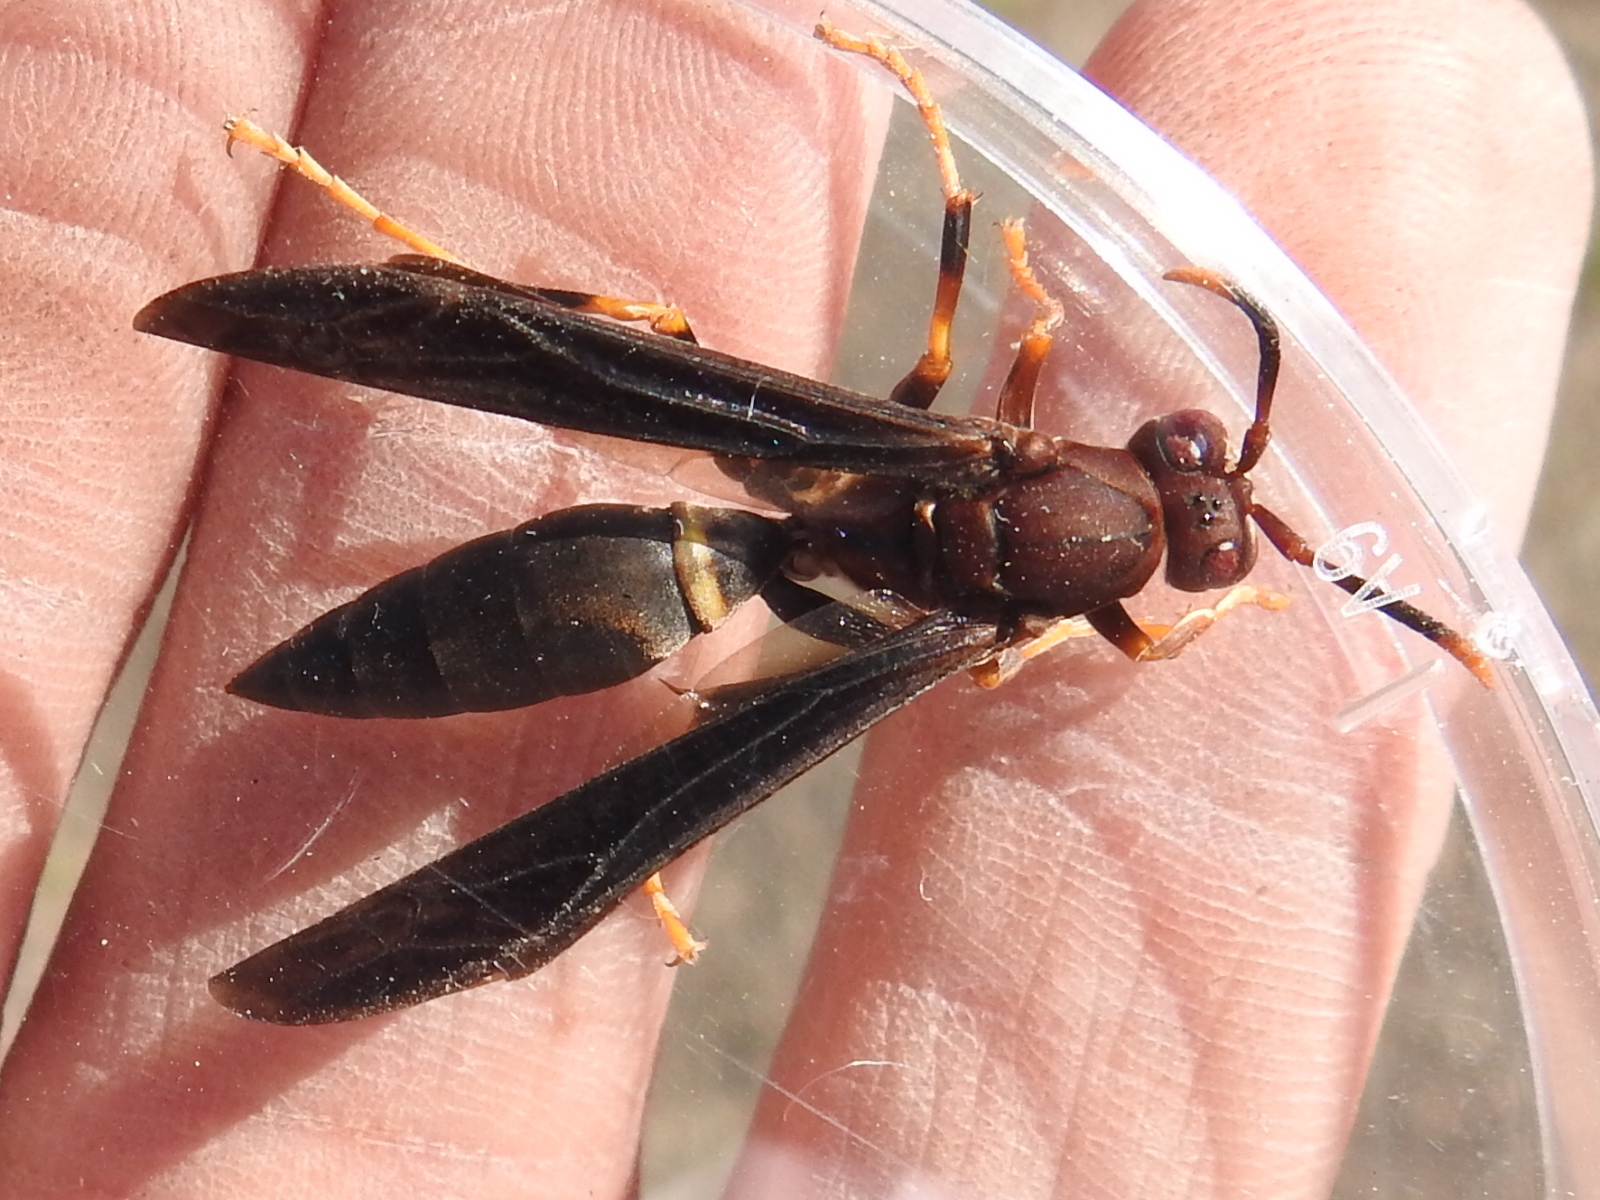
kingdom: Animalia
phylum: Arthropoda
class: Insecta
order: Hymenoptera
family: Eumenidae
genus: Polistes
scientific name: Polistes annularis
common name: Ringed paper wasp
